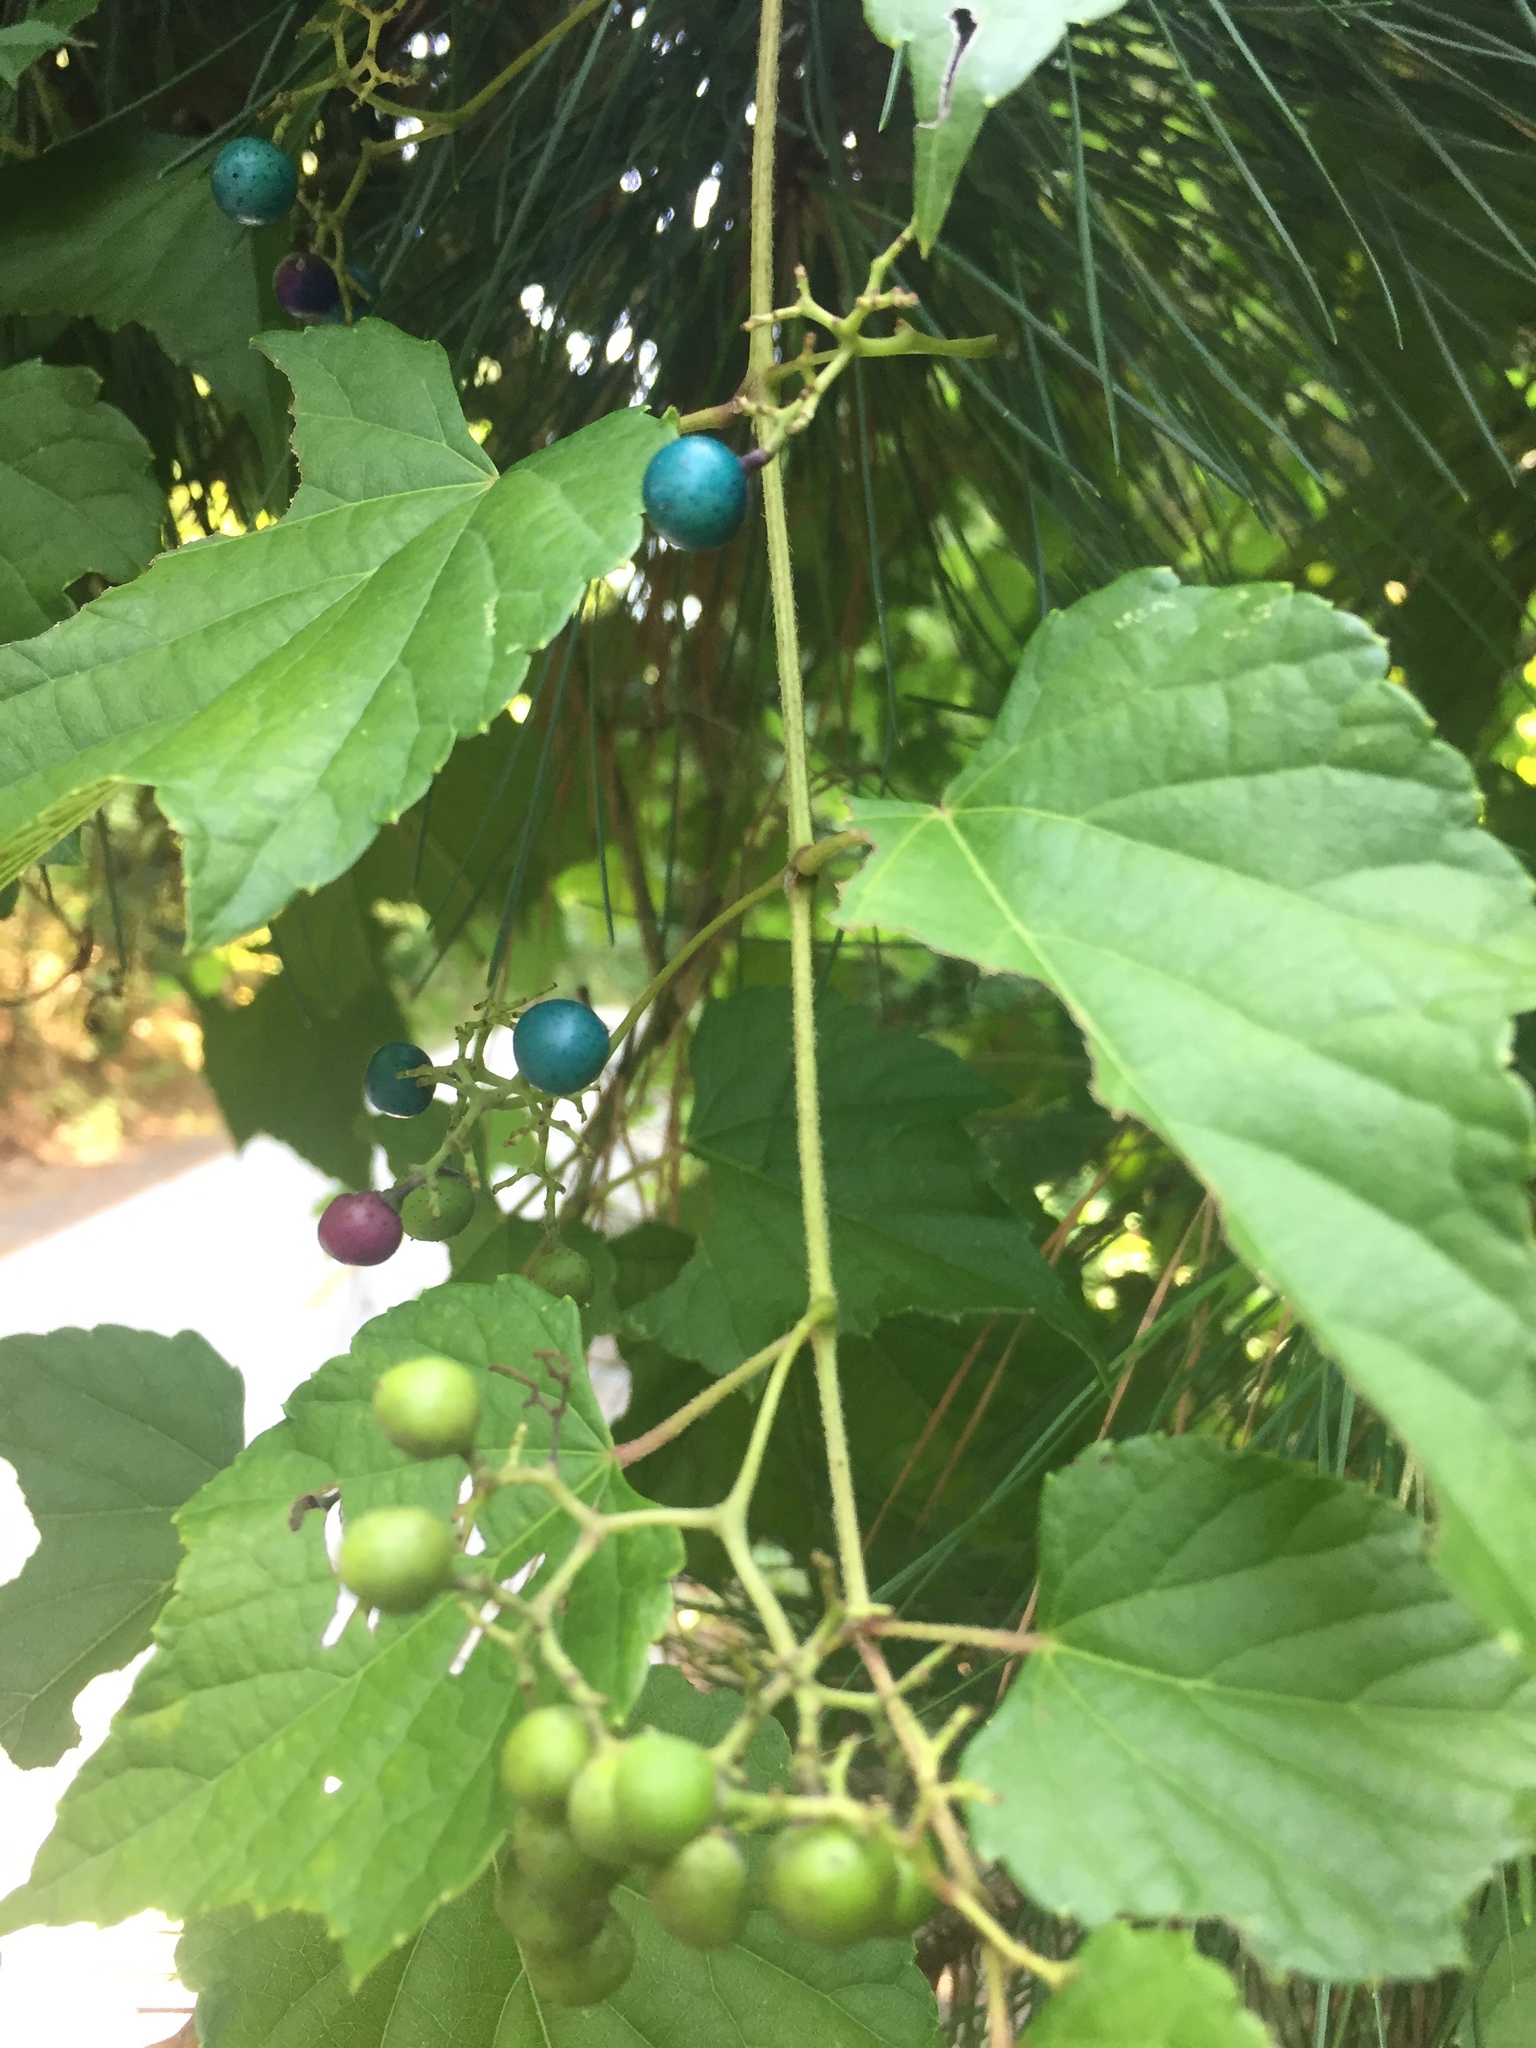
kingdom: Plantae
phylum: Tracheophyta
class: Magnoliopsida
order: Vitales
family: Vitaceae
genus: Ampelopsis
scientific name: Ampelopsis glandulosa
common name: Amur peppervine
